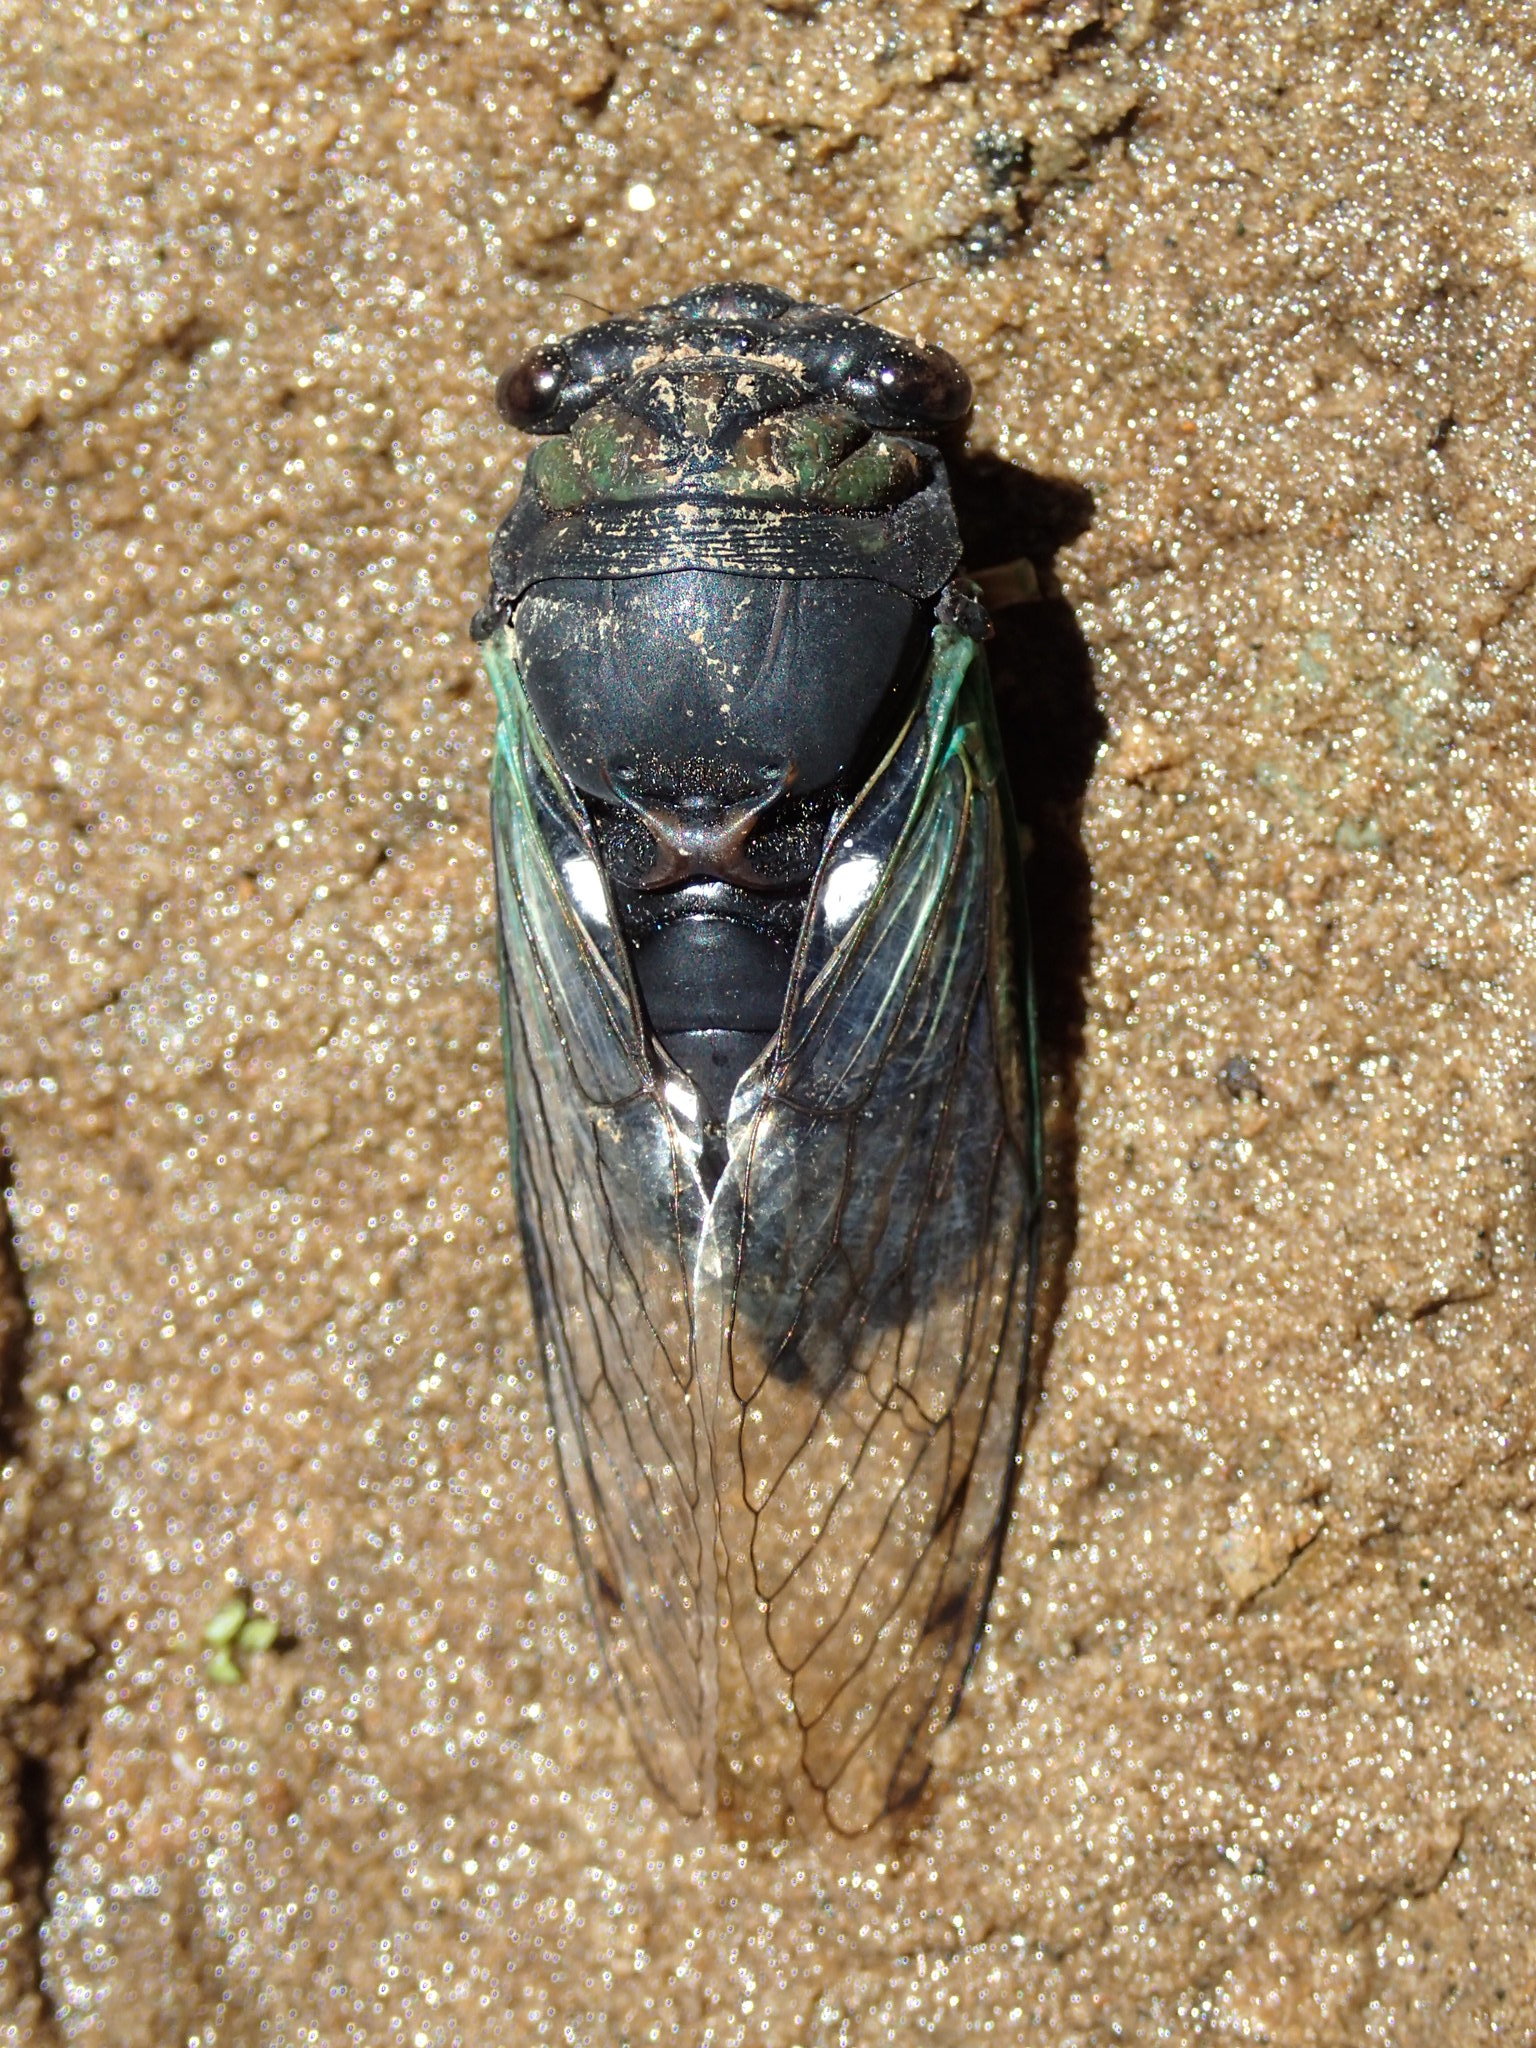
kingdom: Animalia
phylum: Arthropoda
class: Insecta
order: Hemiptera
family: Cicadidae
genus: Neotibicen
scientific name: Neotibicen tibicen
